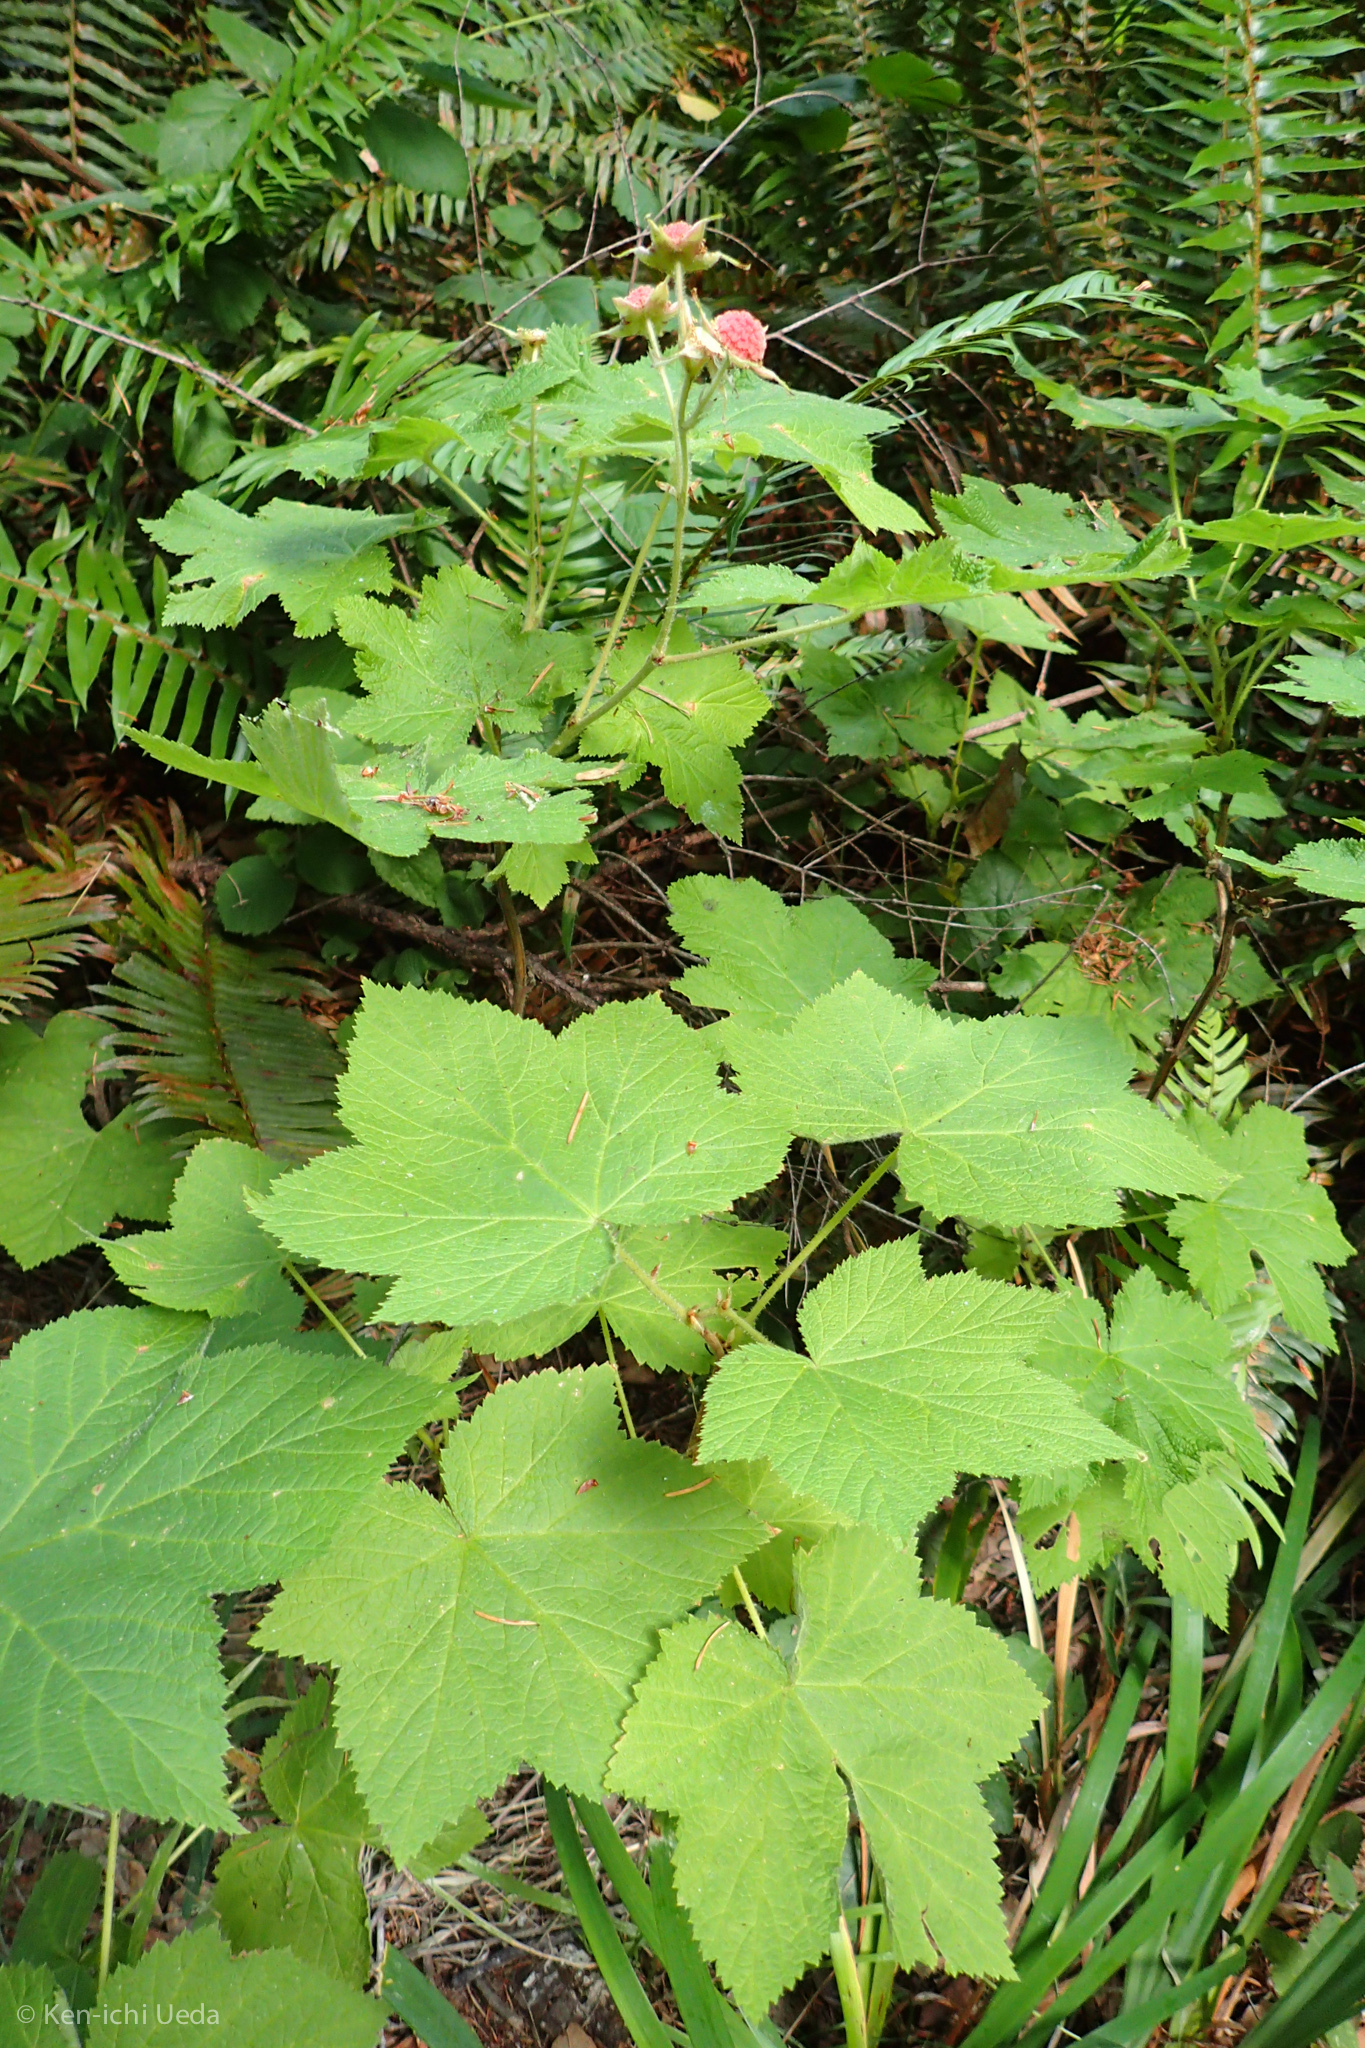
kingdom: Plantae
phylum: Tracheophyta
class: Magnoliopsida
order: Rosales
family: Rosaceae
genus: Rubus
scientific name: Rubus parviflorus
